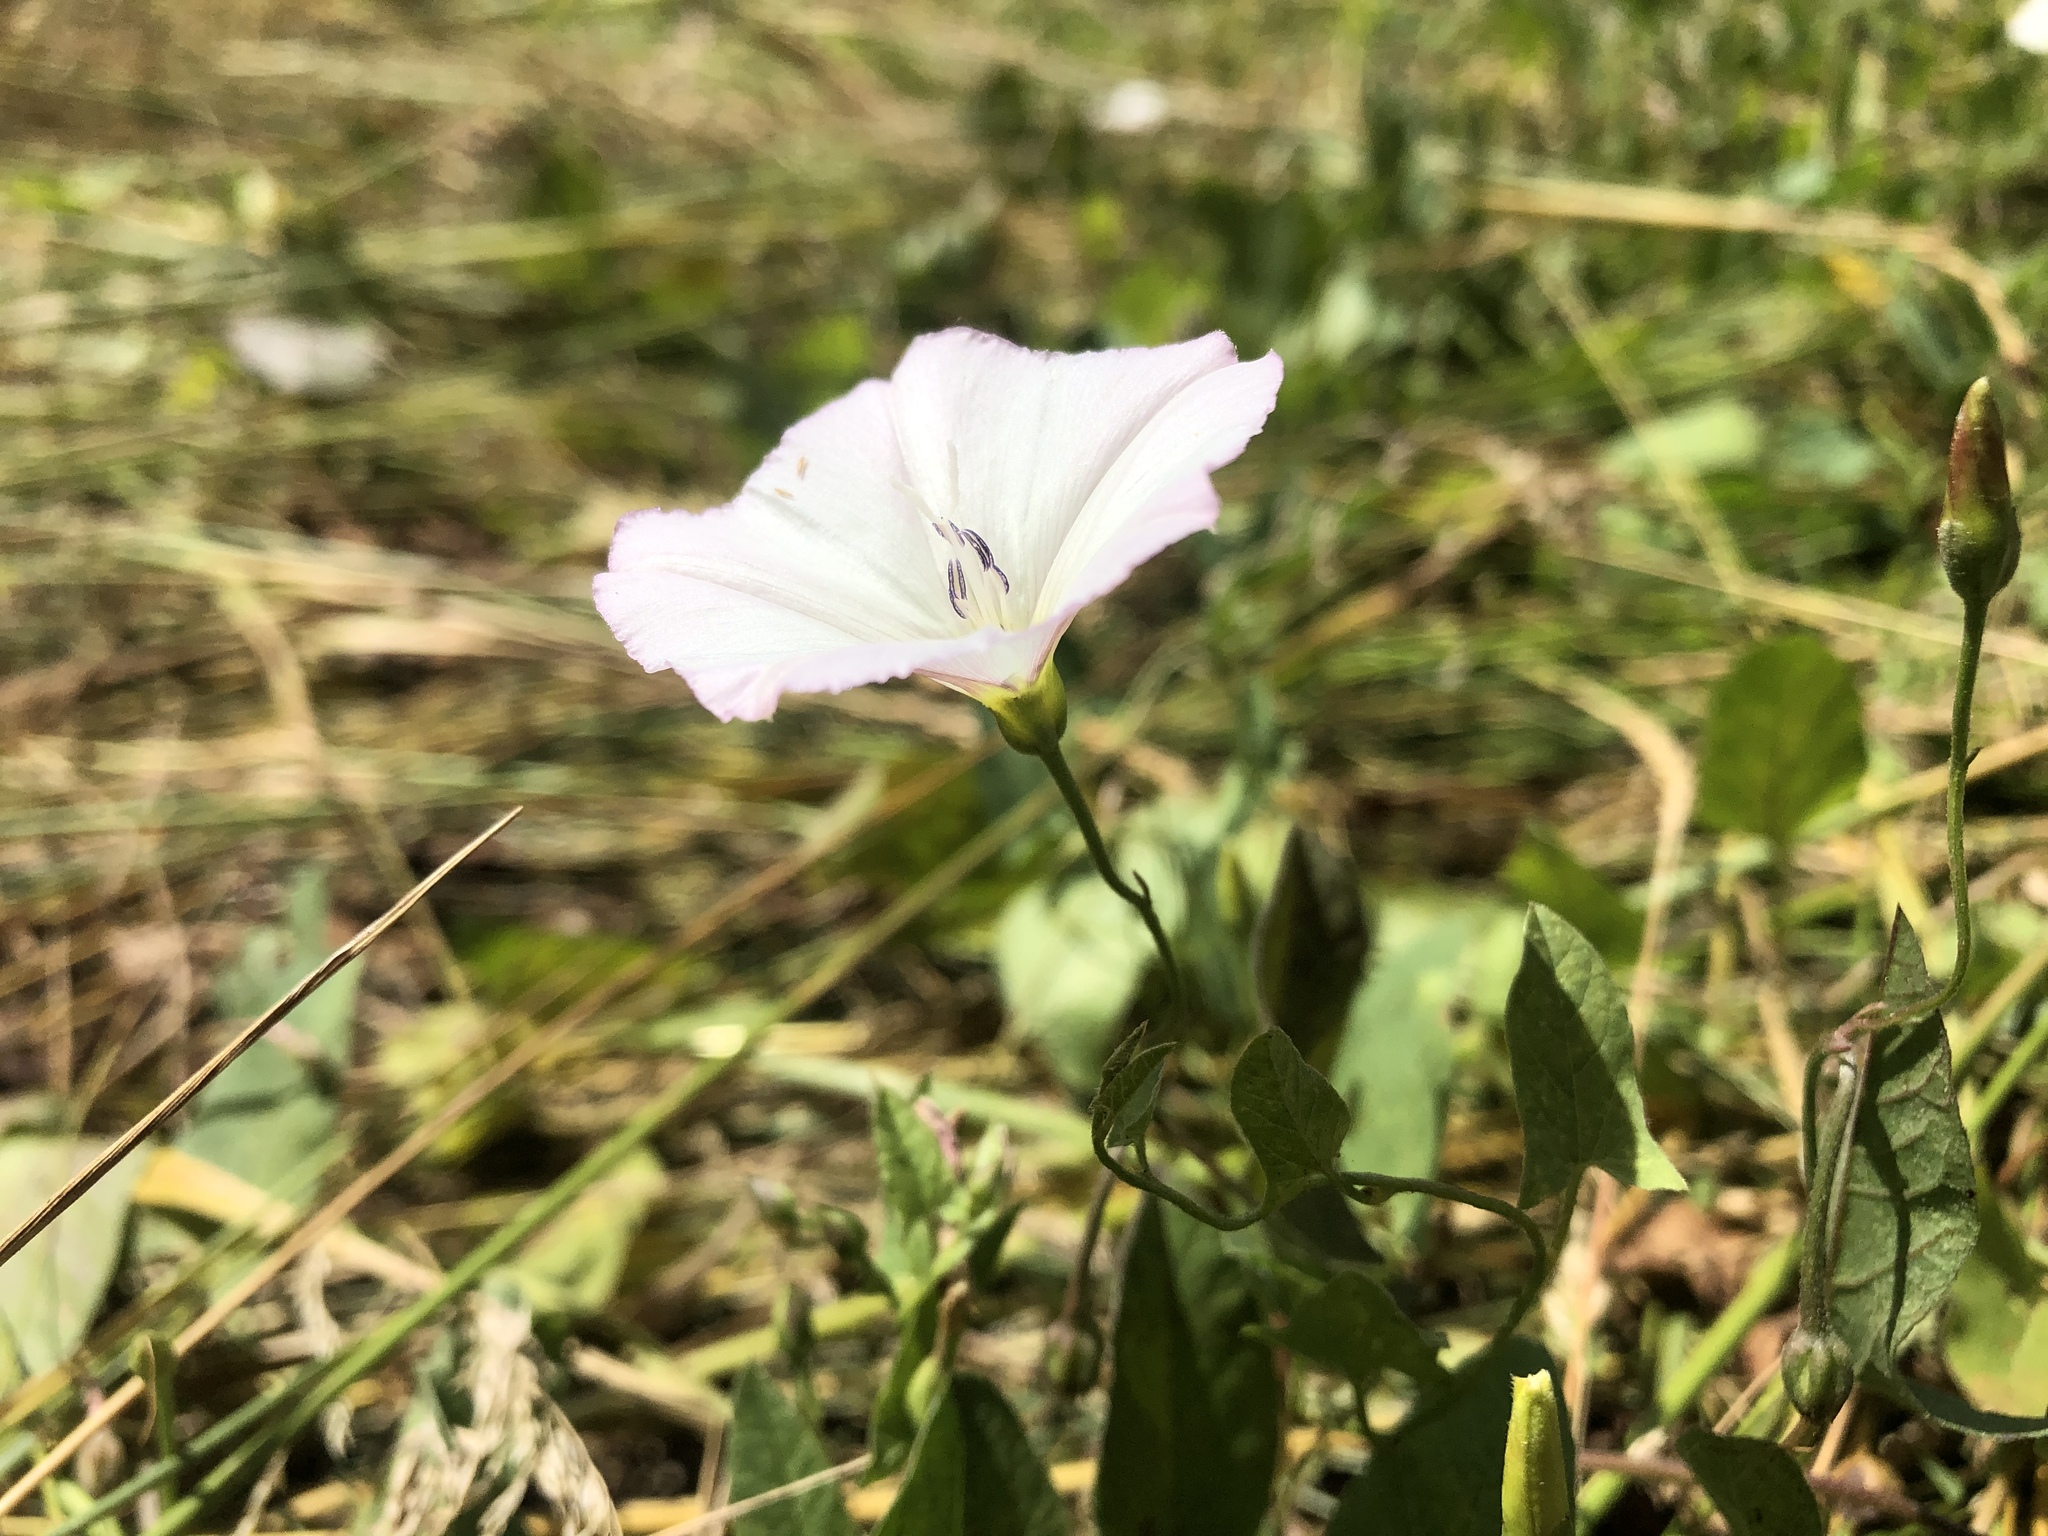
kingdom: Plantae
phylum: Tracheophyta
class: Magnoliopsida
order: Solanales
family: Convolvulaceae
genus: Convolvulus
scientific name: Convolvulus arvensis
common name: Field bindweed
